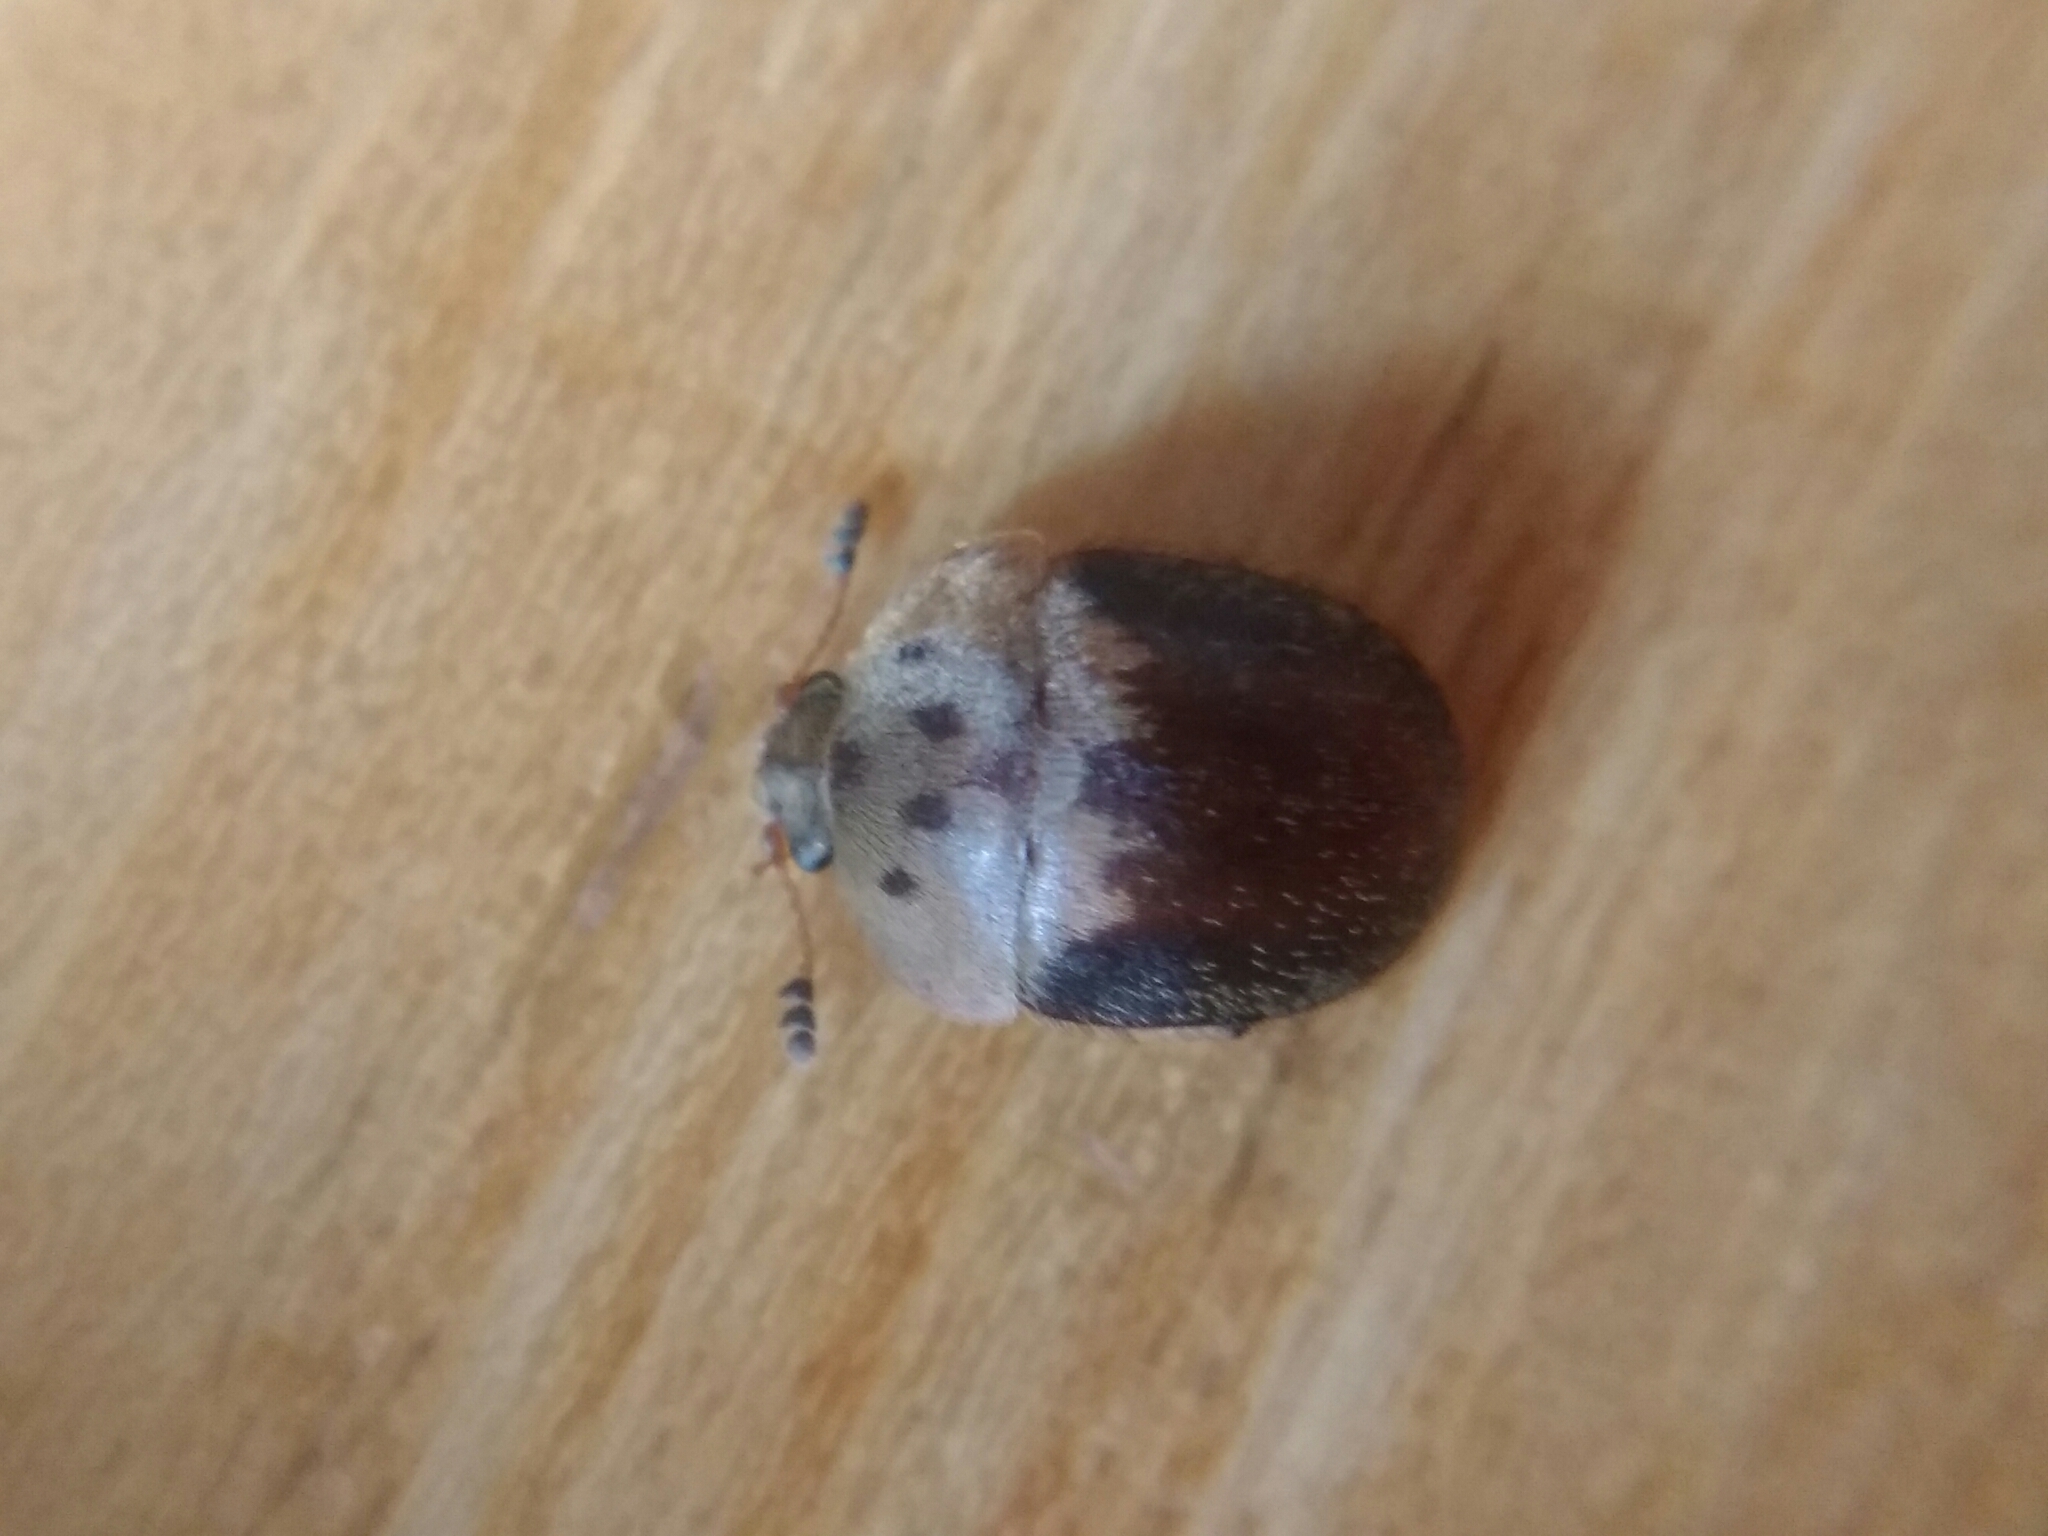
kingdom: Animalia
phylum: Arthropoda
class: Insecta
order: Coleoptera
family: Nitidulidae
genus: Cychramus
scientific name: Cychramus variegatus
